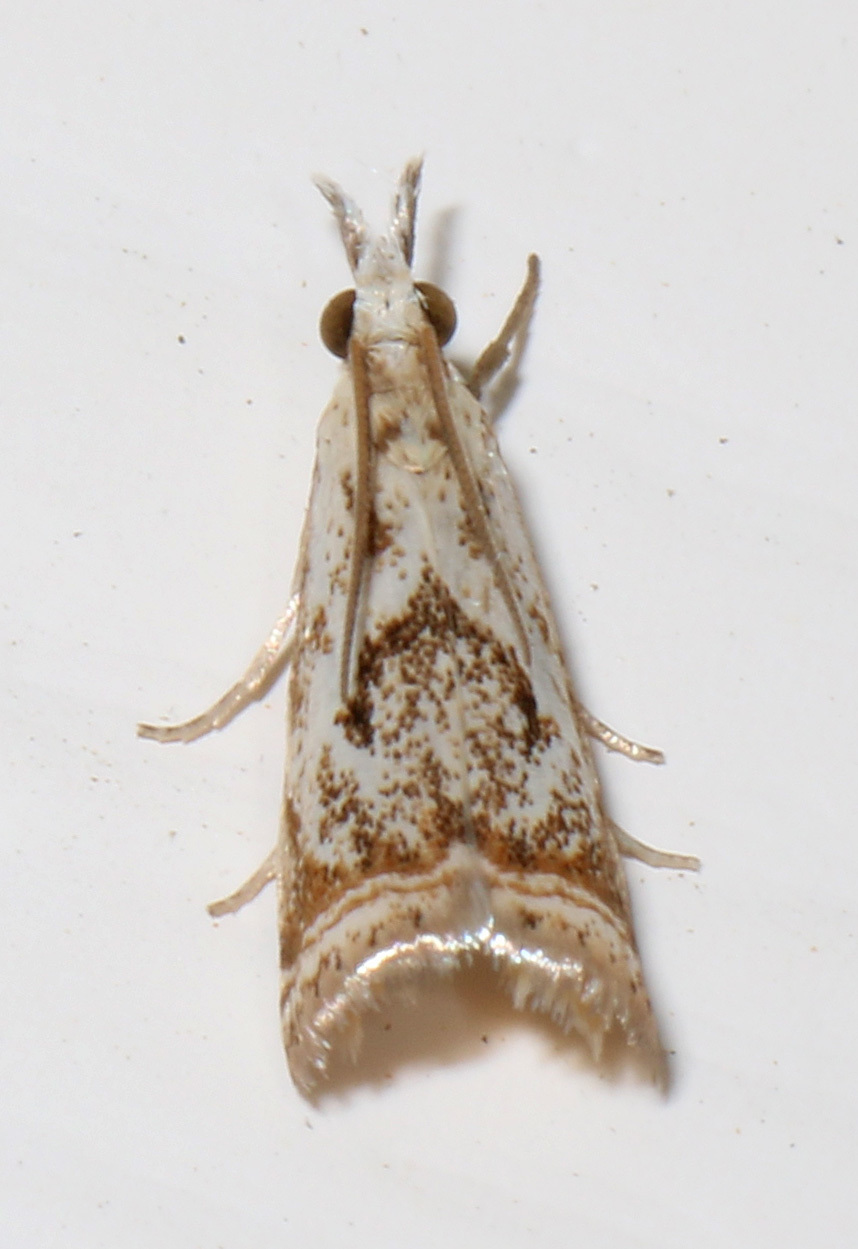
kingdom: Animalia
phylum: Arthropoda
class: Insecta
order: Lepidoptera
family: Crambidae
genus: Microcrambus
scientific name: Microcrambus elegans
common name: Elegant grass-veneer
